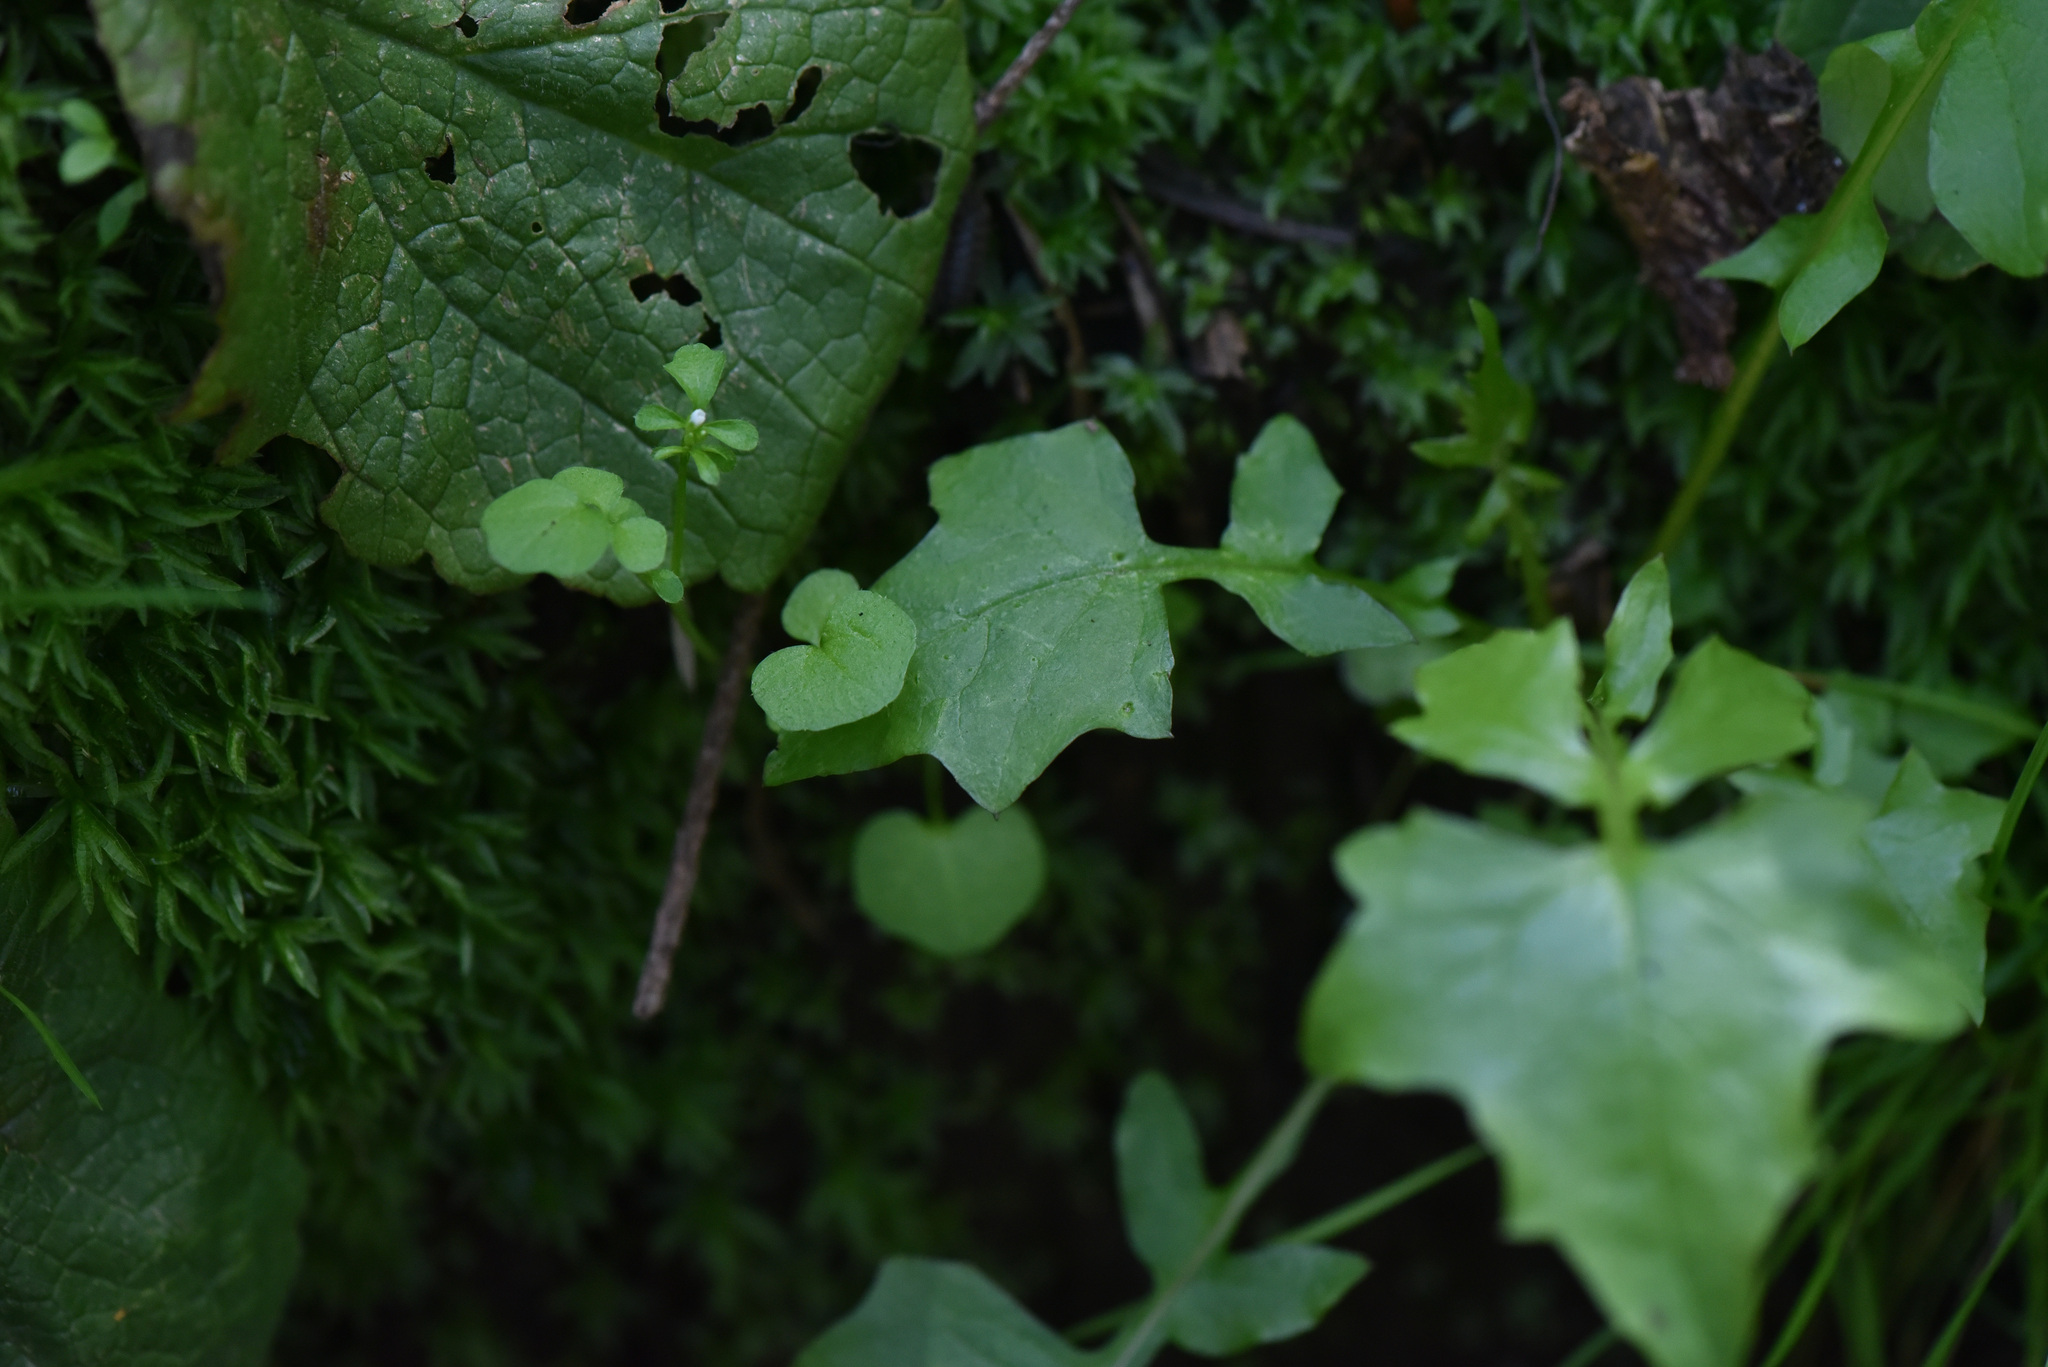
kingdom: Plantae
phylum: Tracheophyta
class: Magnoliopsida
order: Asterales
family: Asteraceae
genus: Mycelis
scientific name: Mycelis muralis
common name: Wall lettuce
